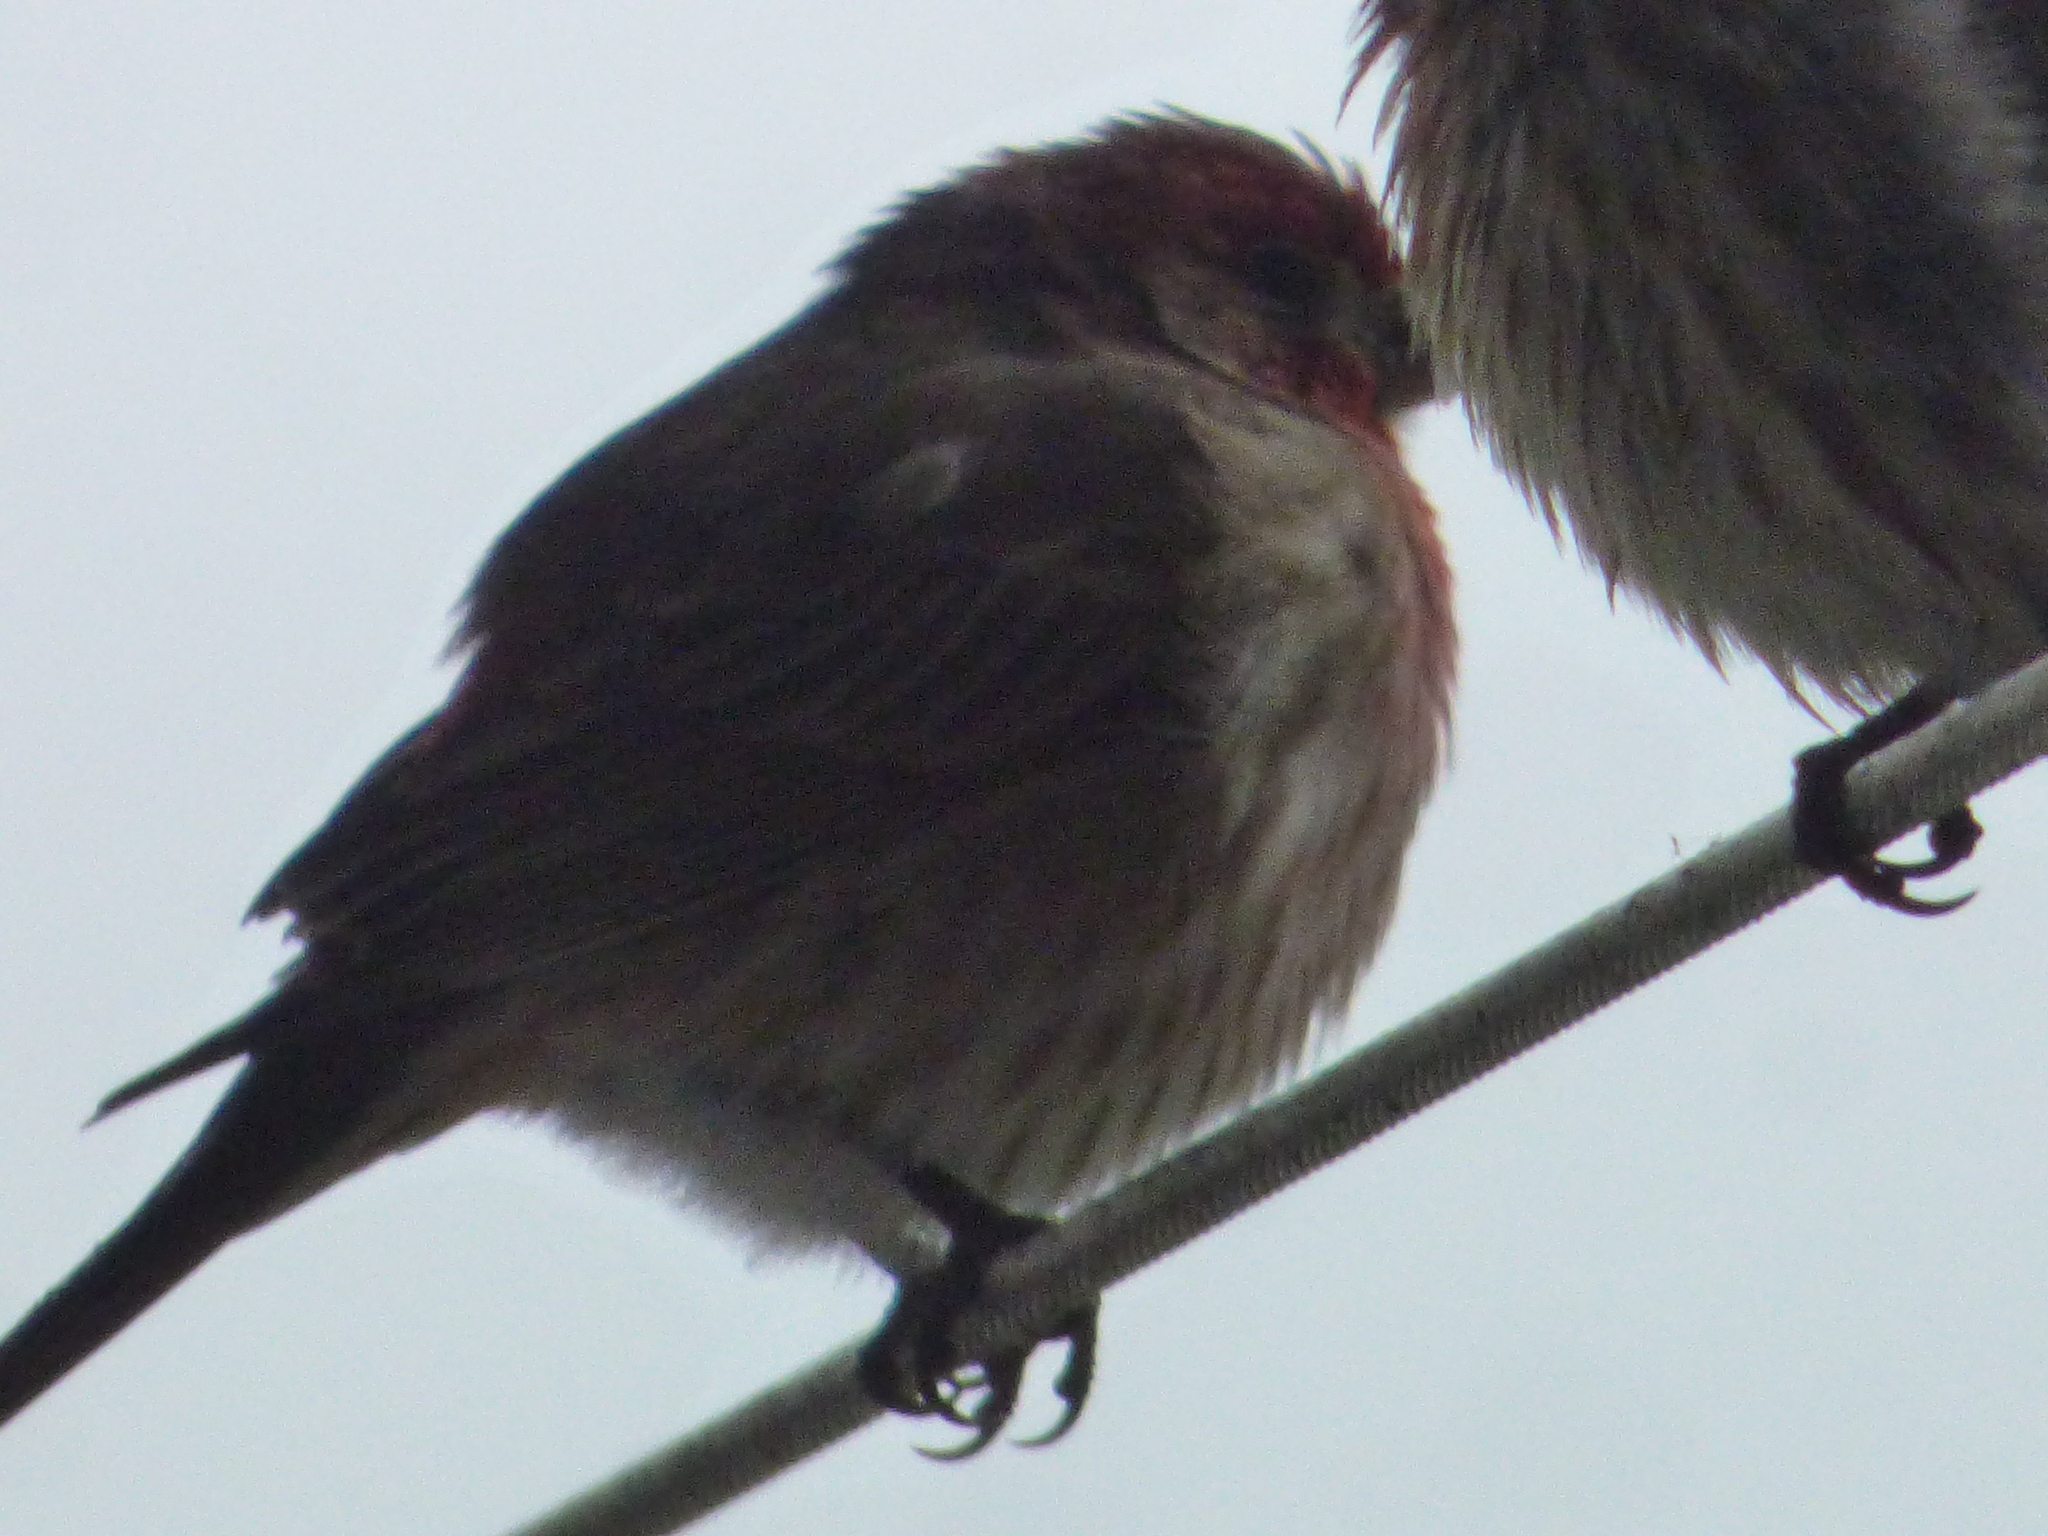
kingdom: Animalia
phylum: Chordata
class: Aves
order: Passeriformes
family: Fringillidae
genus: Haemorhous
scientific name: Haemorhous mexicanus
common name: House finch
